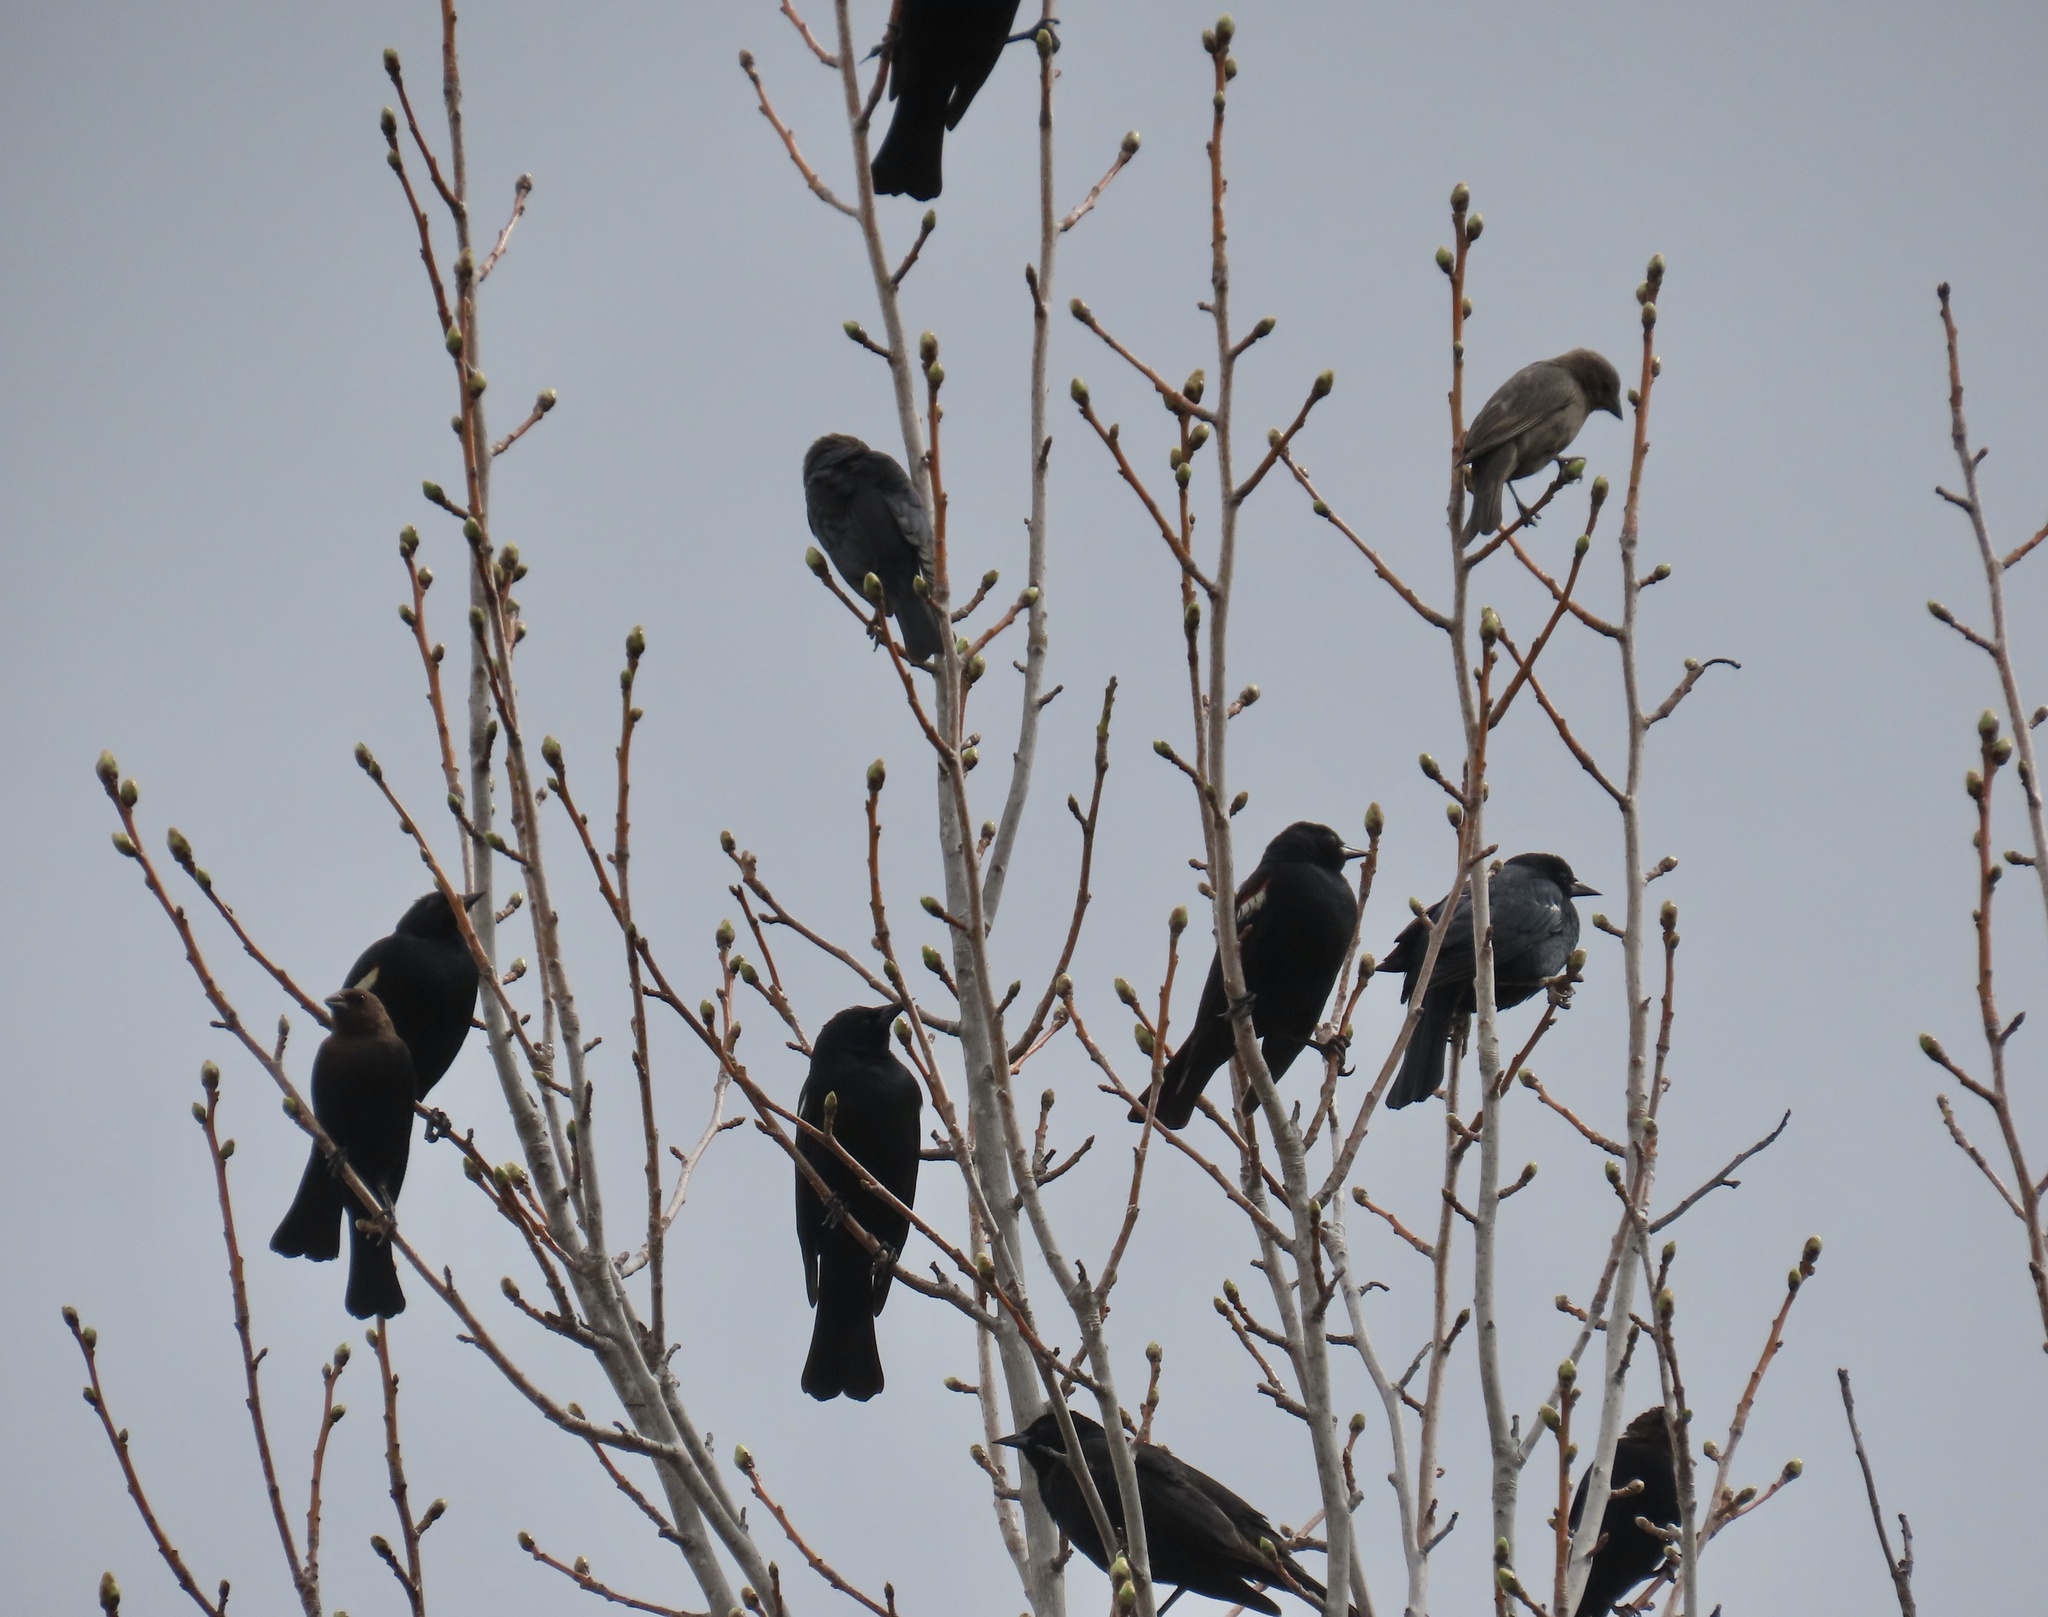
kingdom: Animalia
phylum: Chordata
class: Aves
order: Passeriformes
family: Icteridae
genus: Agelaius
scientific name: Agelaius tricolor
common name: Tricolored blackbird
